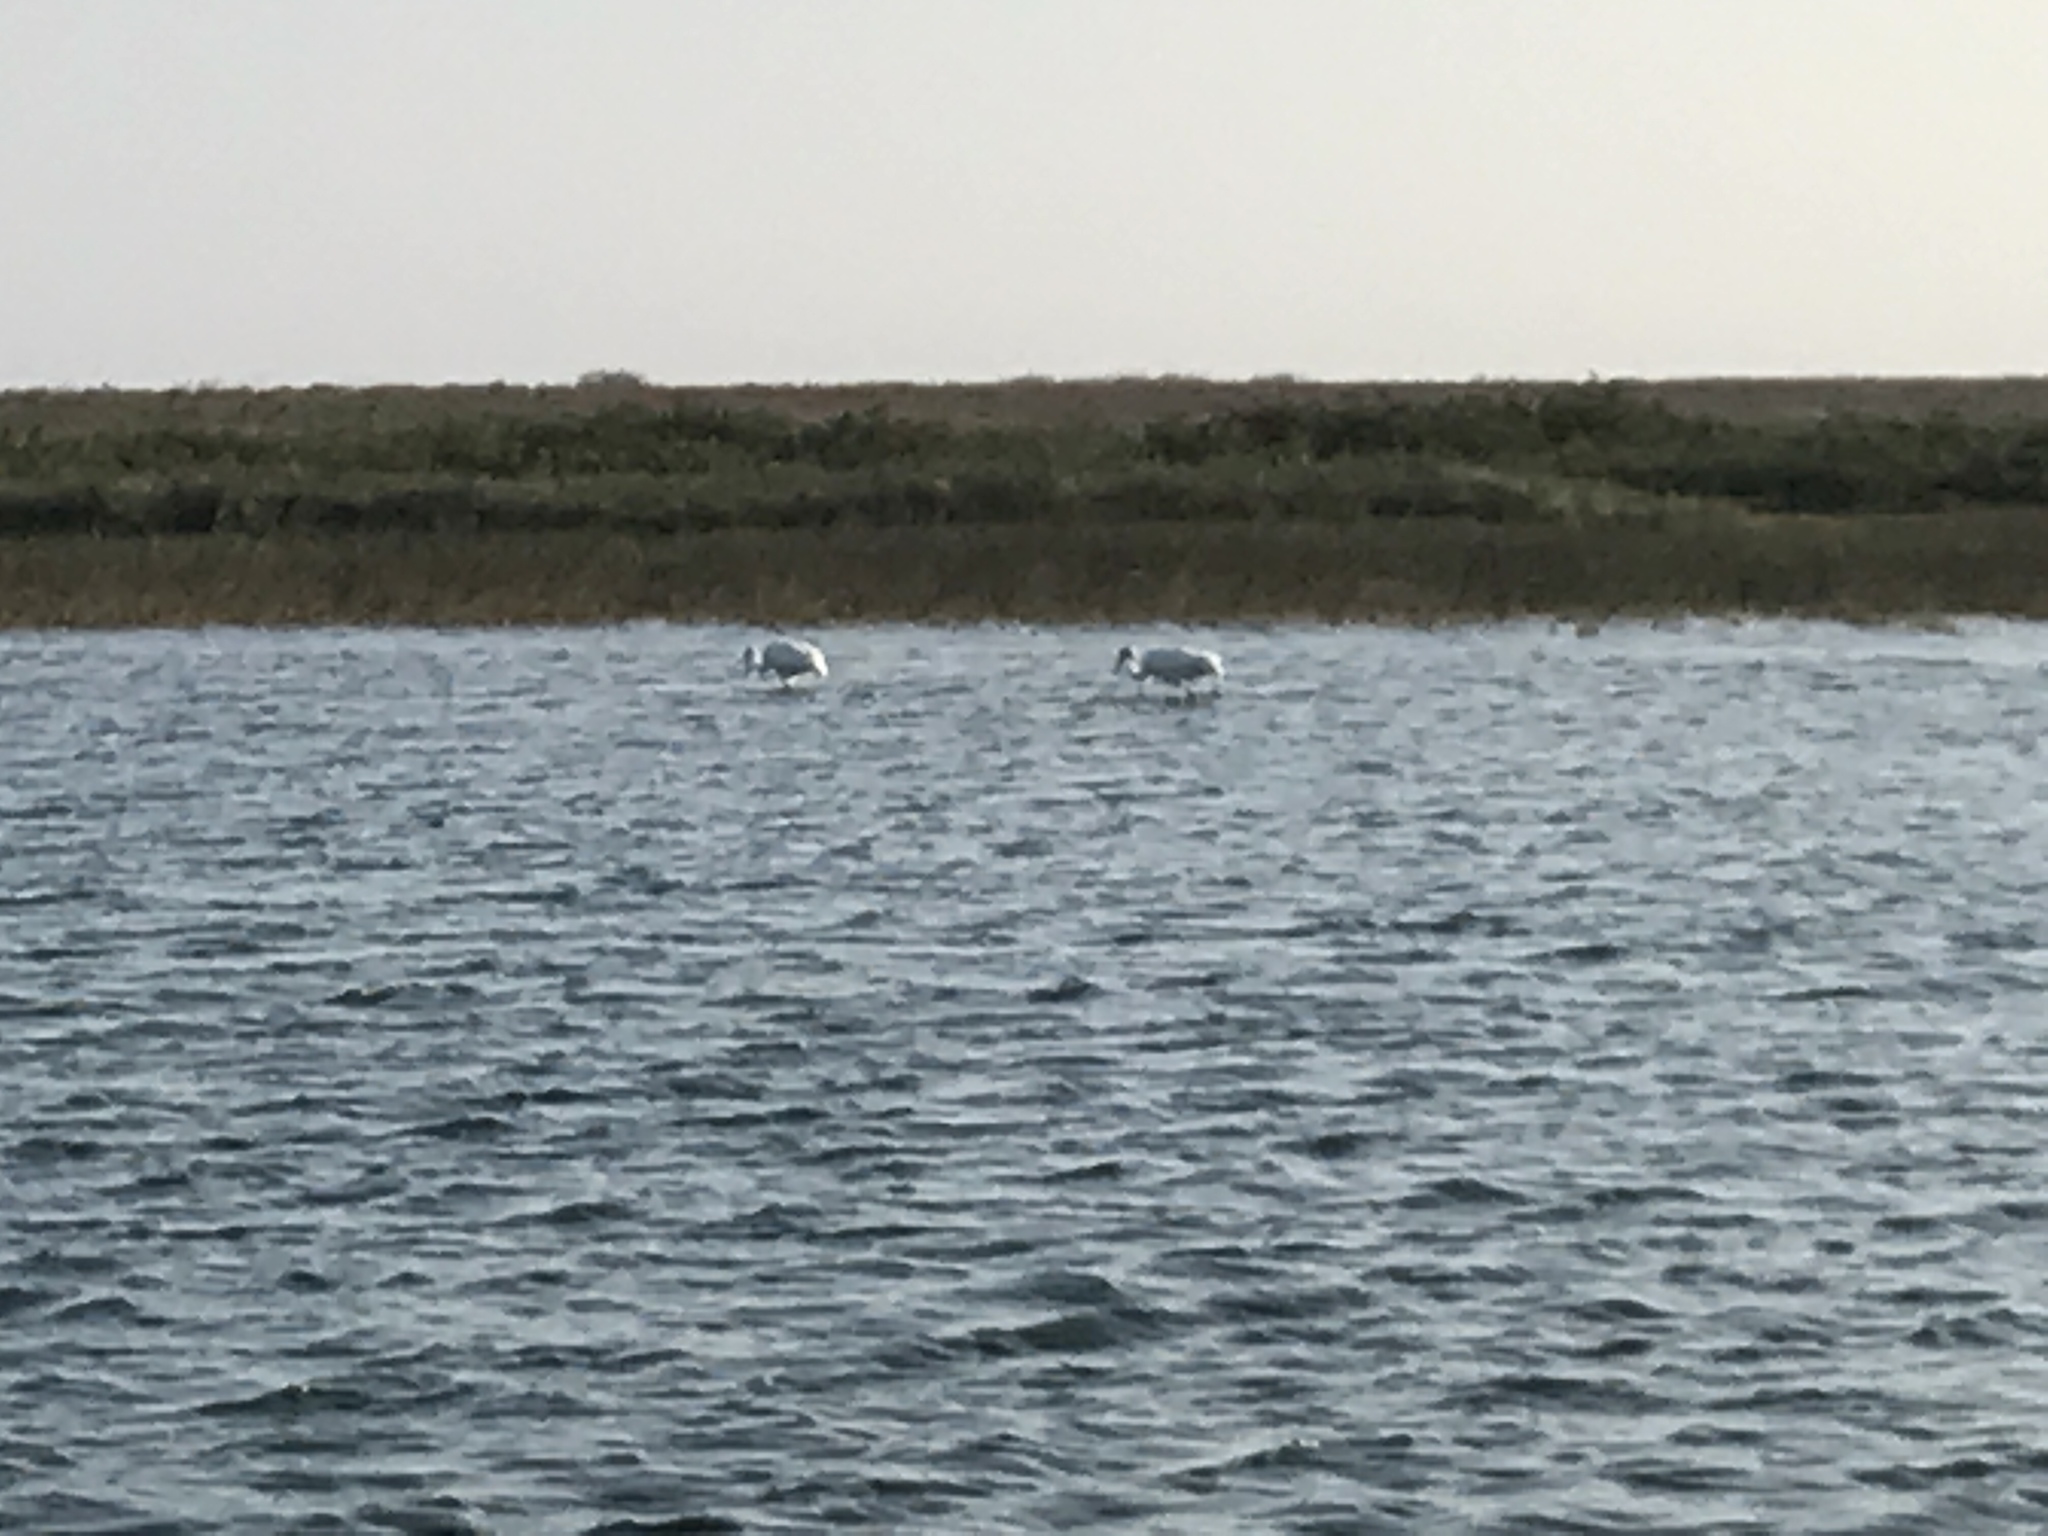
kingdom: Animalia
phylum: Chordata
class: Aves
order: Gruiformes
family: Gruidae
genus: Grus
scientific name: Grus americana
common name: Whooping crane
